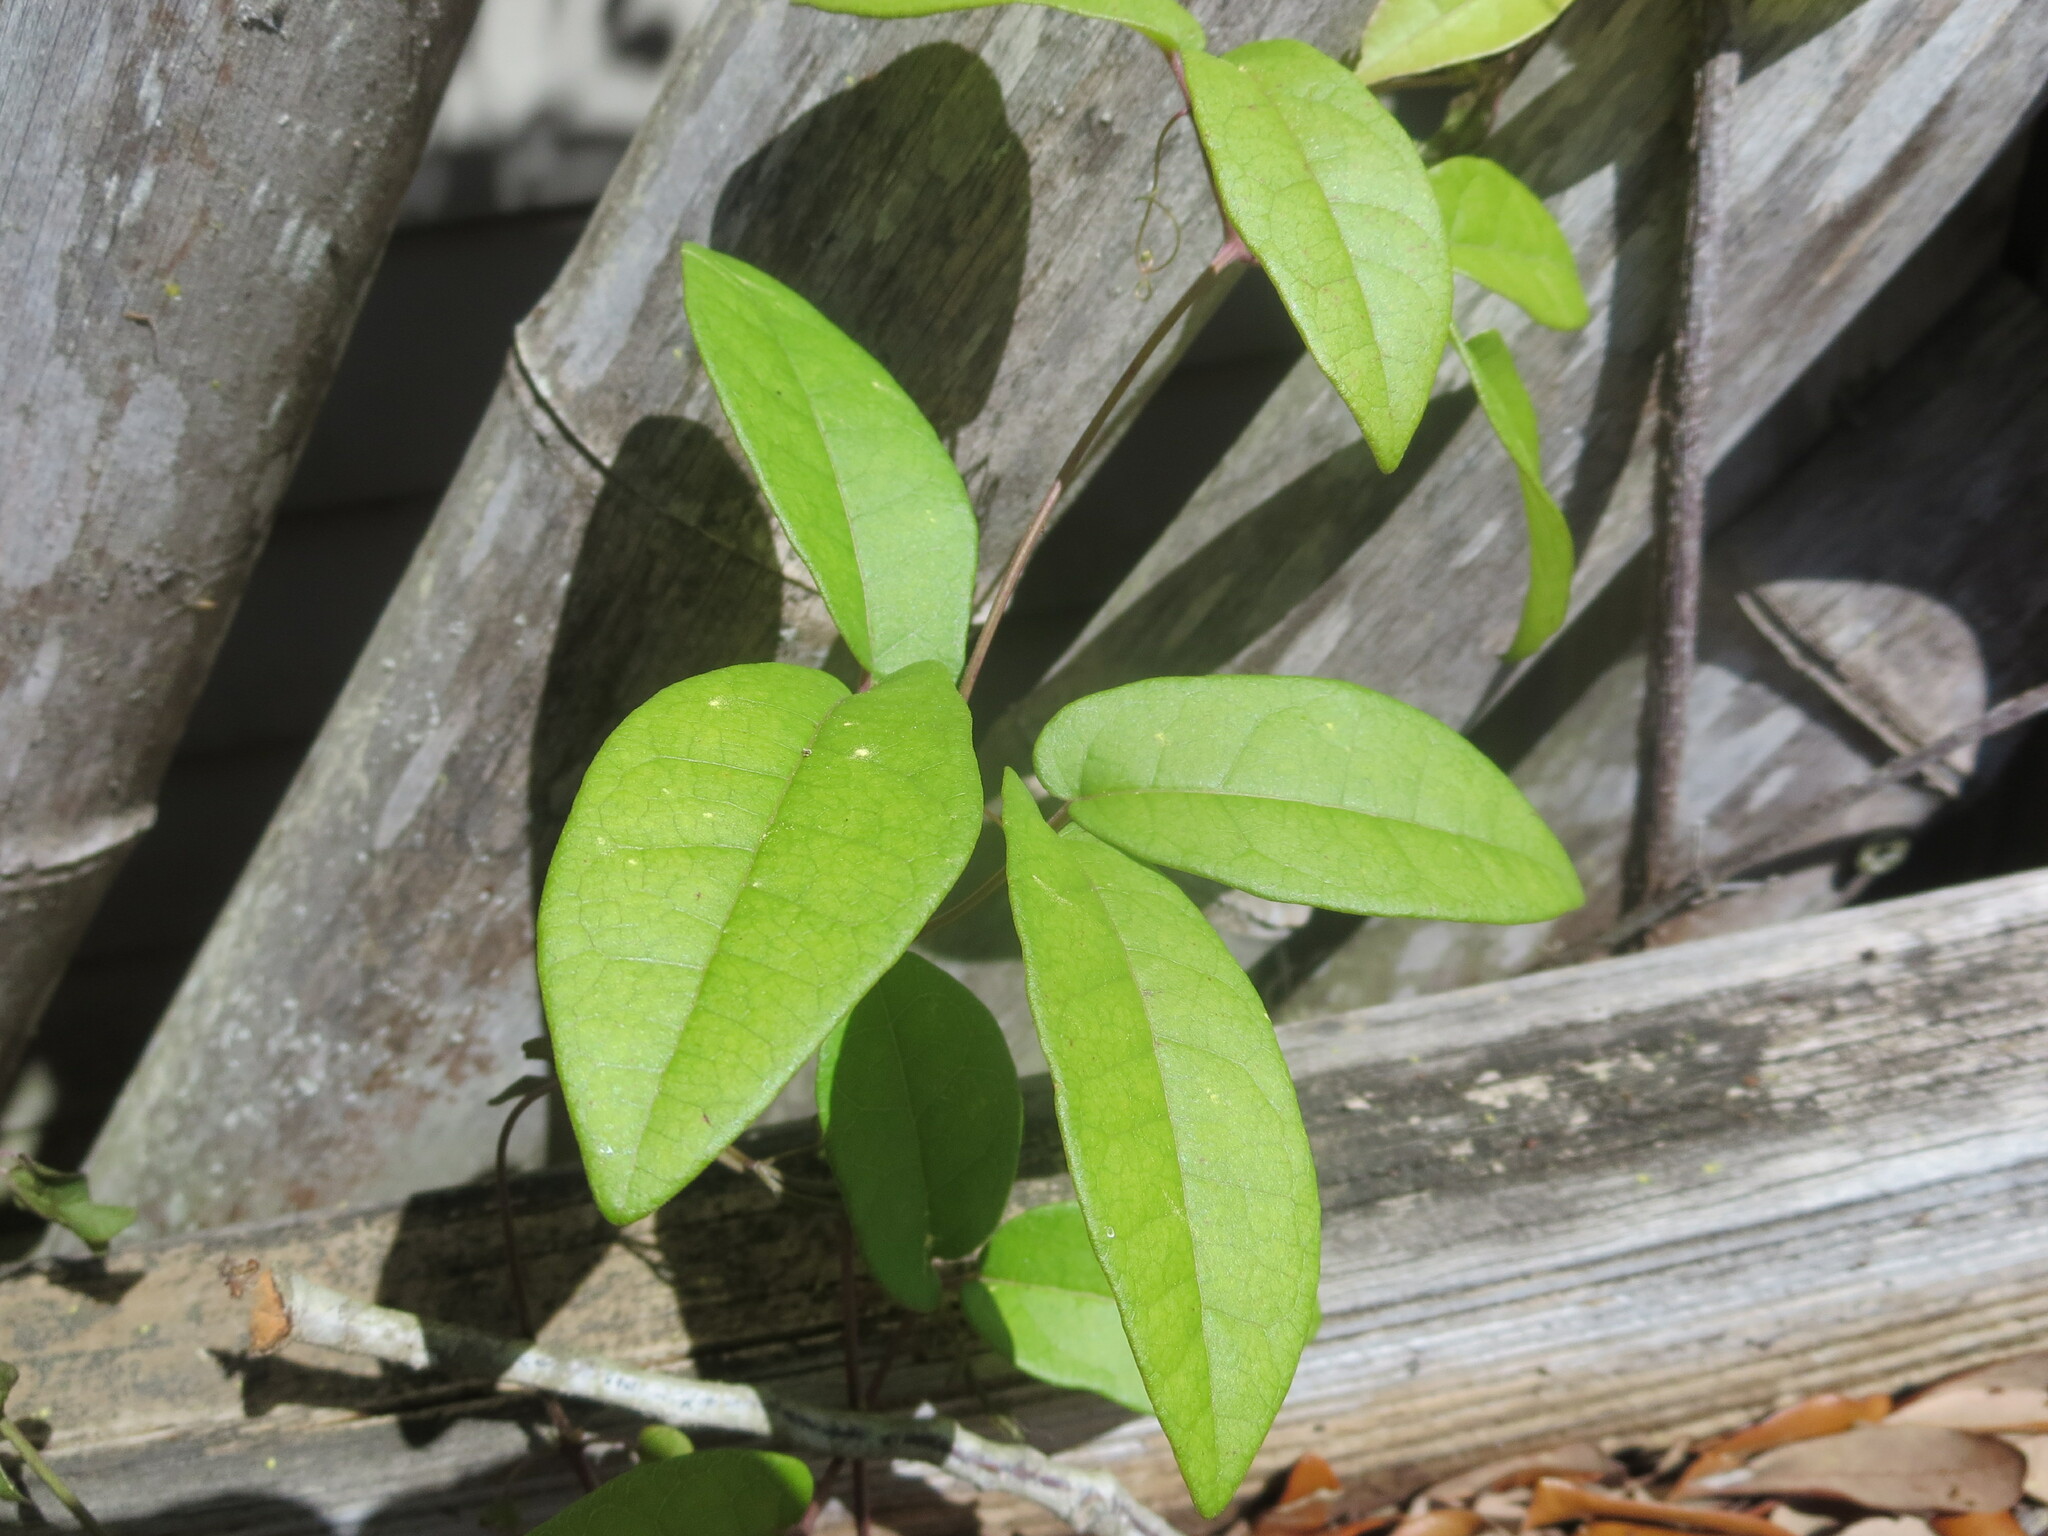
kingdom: Plantae
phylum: Tracheophyta
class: Magnoliopsida
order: Lamiales
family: Bignoniaceae
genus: Bignonia
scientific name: Bignonia capreolata
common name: Crossvine
